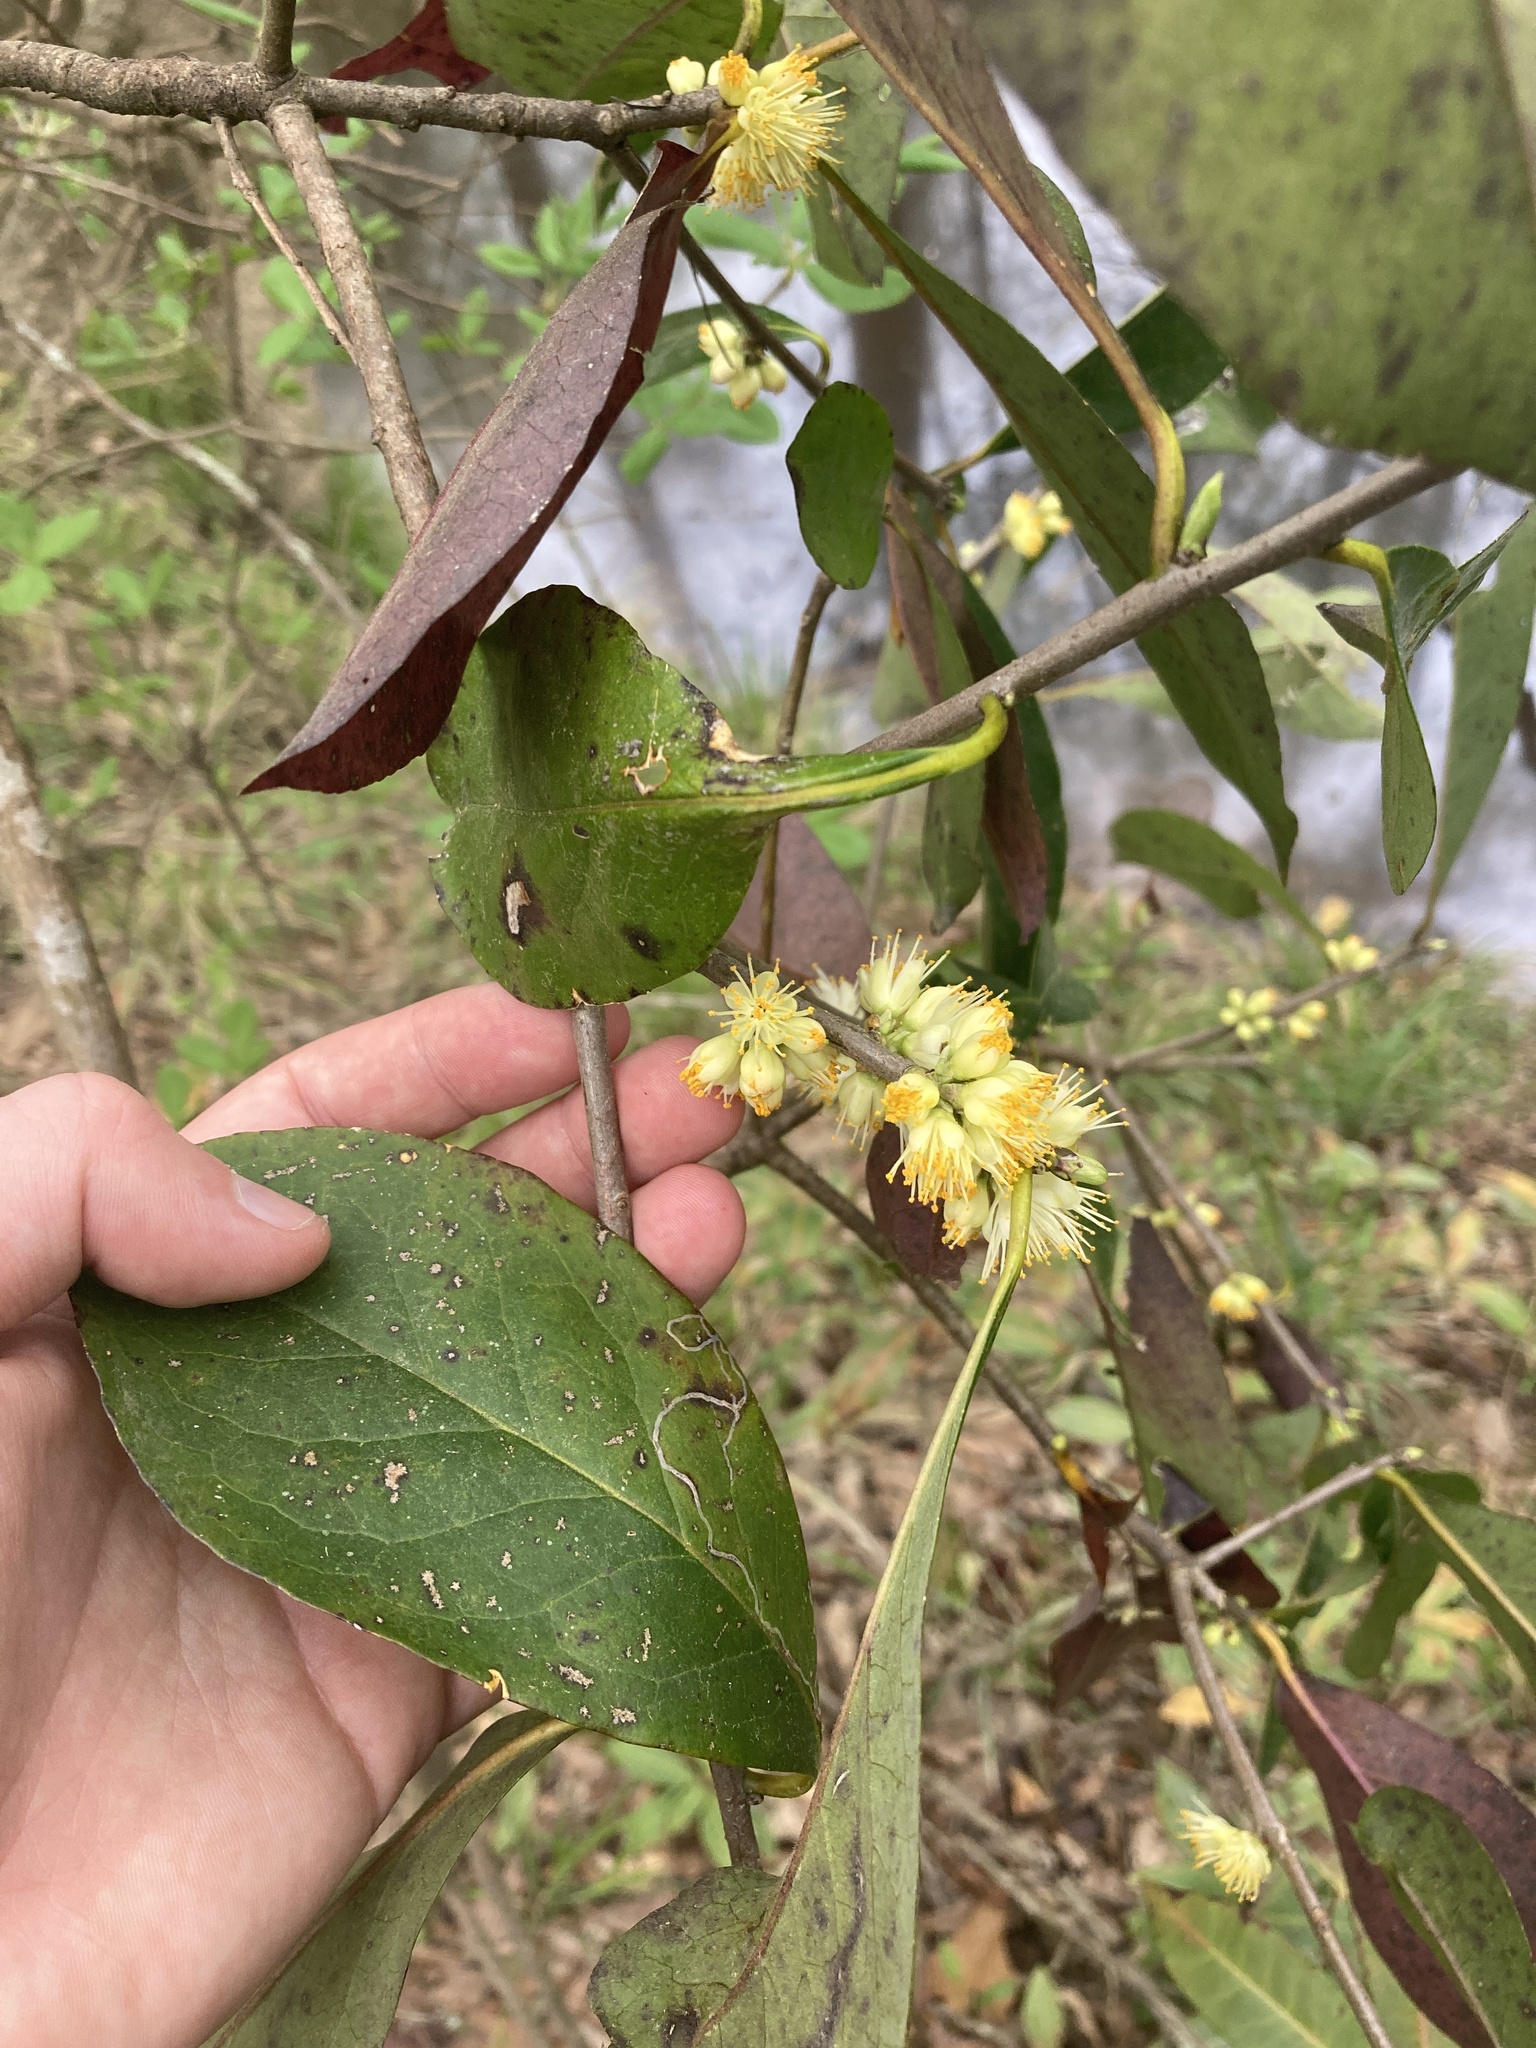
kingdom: Plantae
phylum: Tracheophyta
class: Magnoliopsida
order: Ericales
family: Symplocaceae
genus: Symplocos
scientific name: Symplocos tinctoria
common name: Horse-sugar
